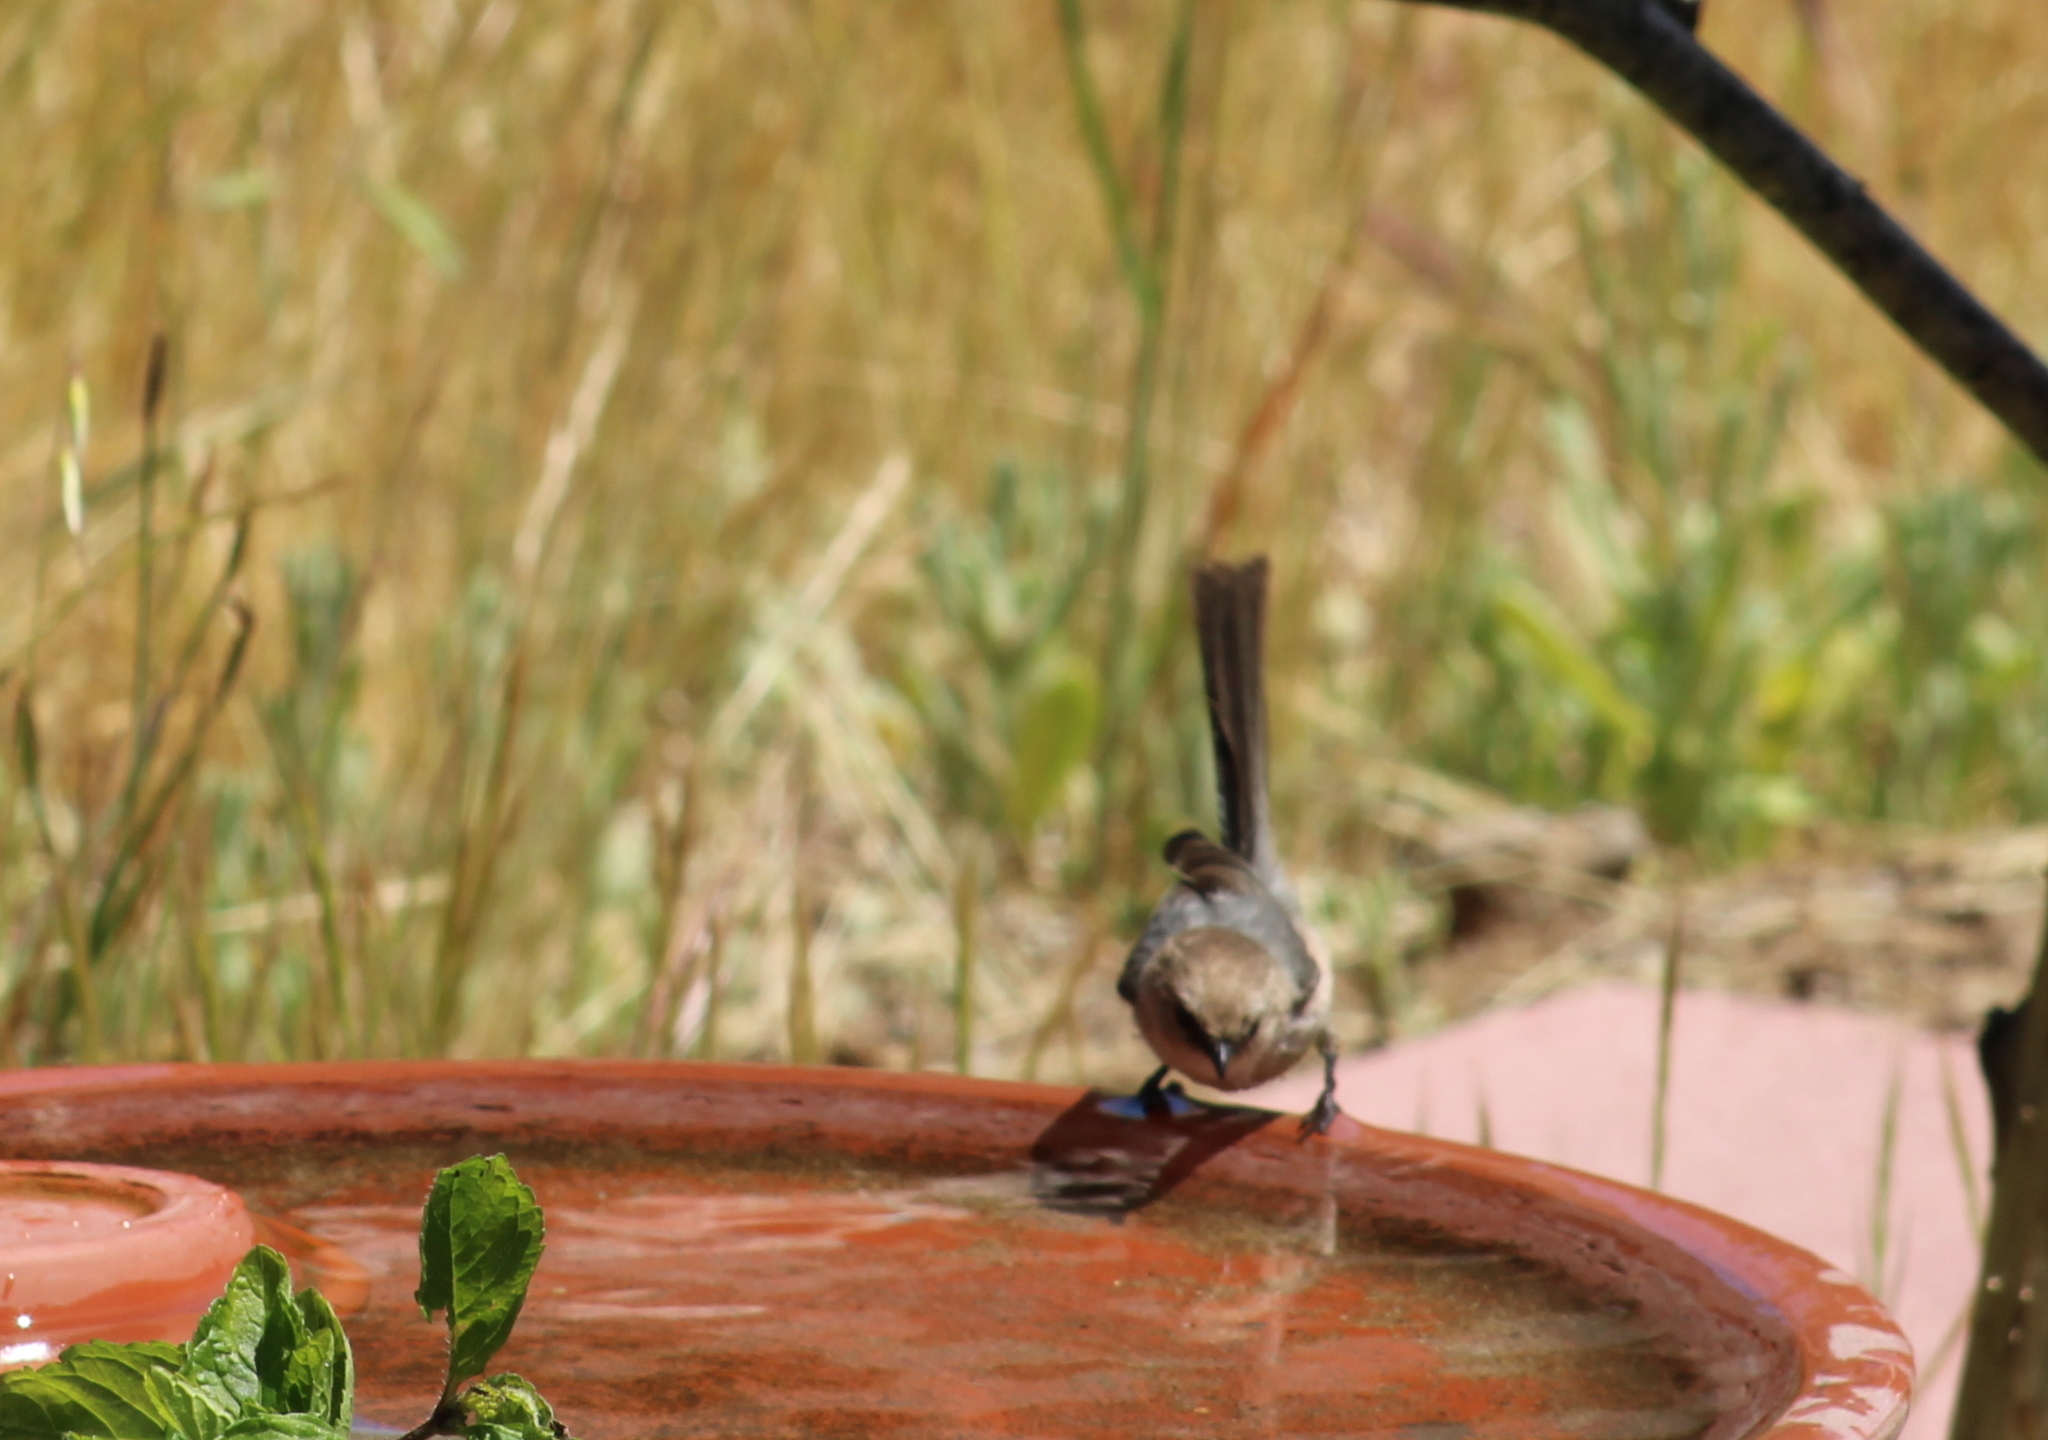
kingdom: Animalia
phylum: Chordata
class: Aves
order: Passeriformes
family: Aegithalidae
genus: Psaltriparus
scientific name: Psaltriparus minimus
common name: American bushtit
